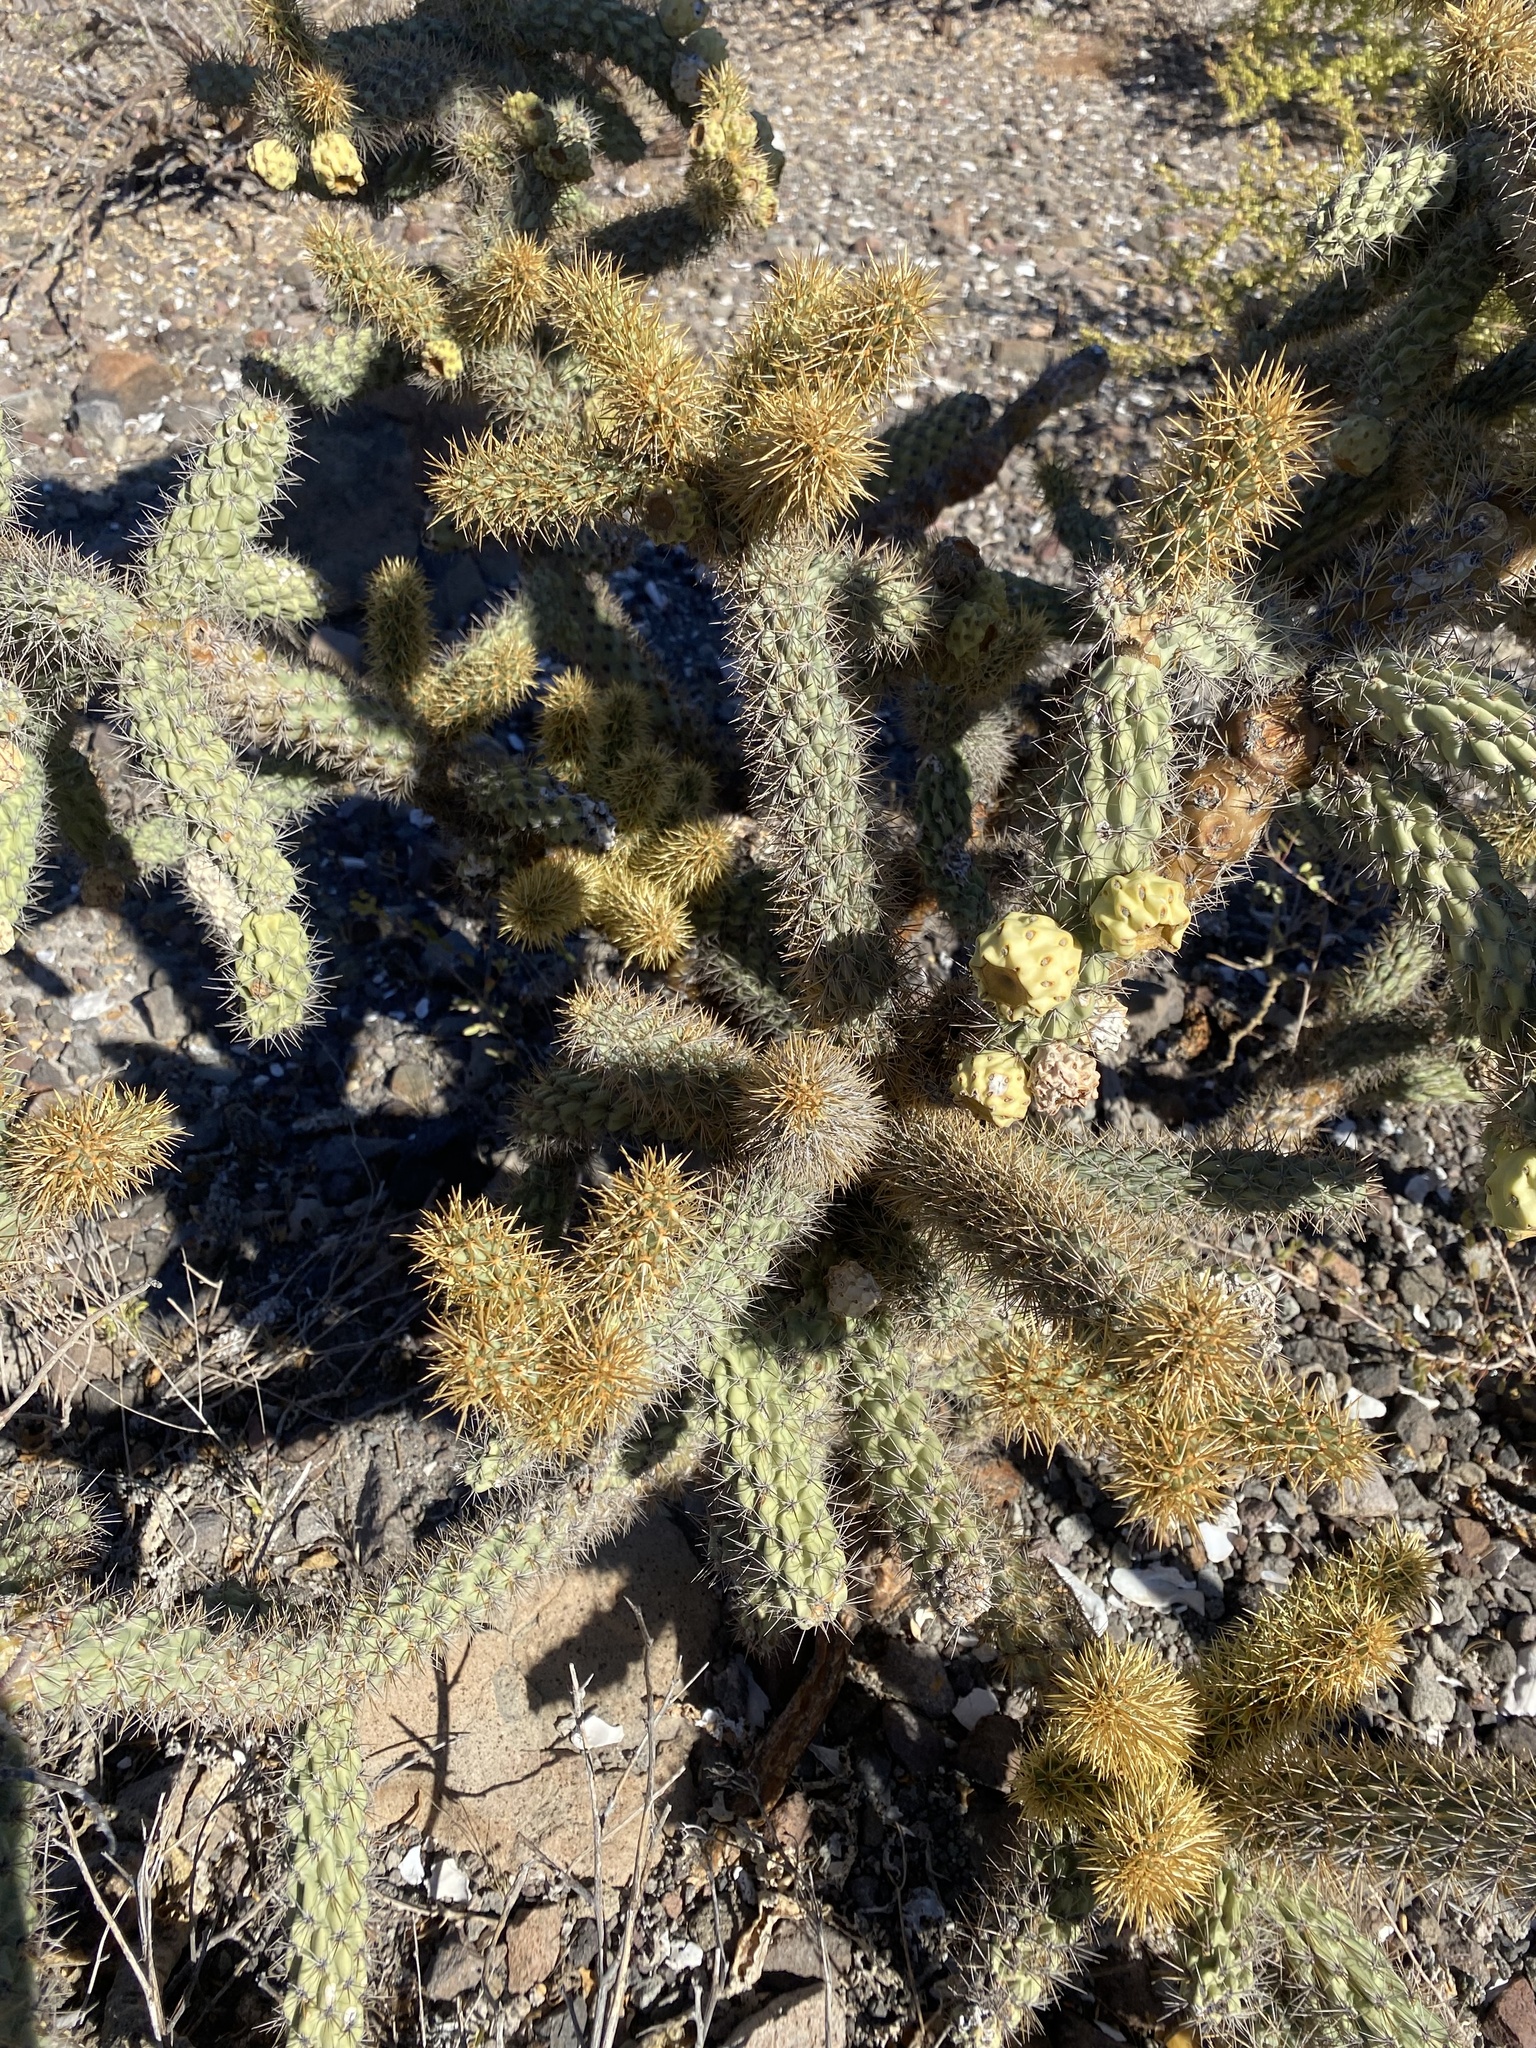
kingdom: Plantae
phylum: Tracheophyta
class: Magnoliopsida
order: Caryophyllales
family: Cactaceae
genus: Cylindropuntia
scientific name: Cylindropuntia alcahes
